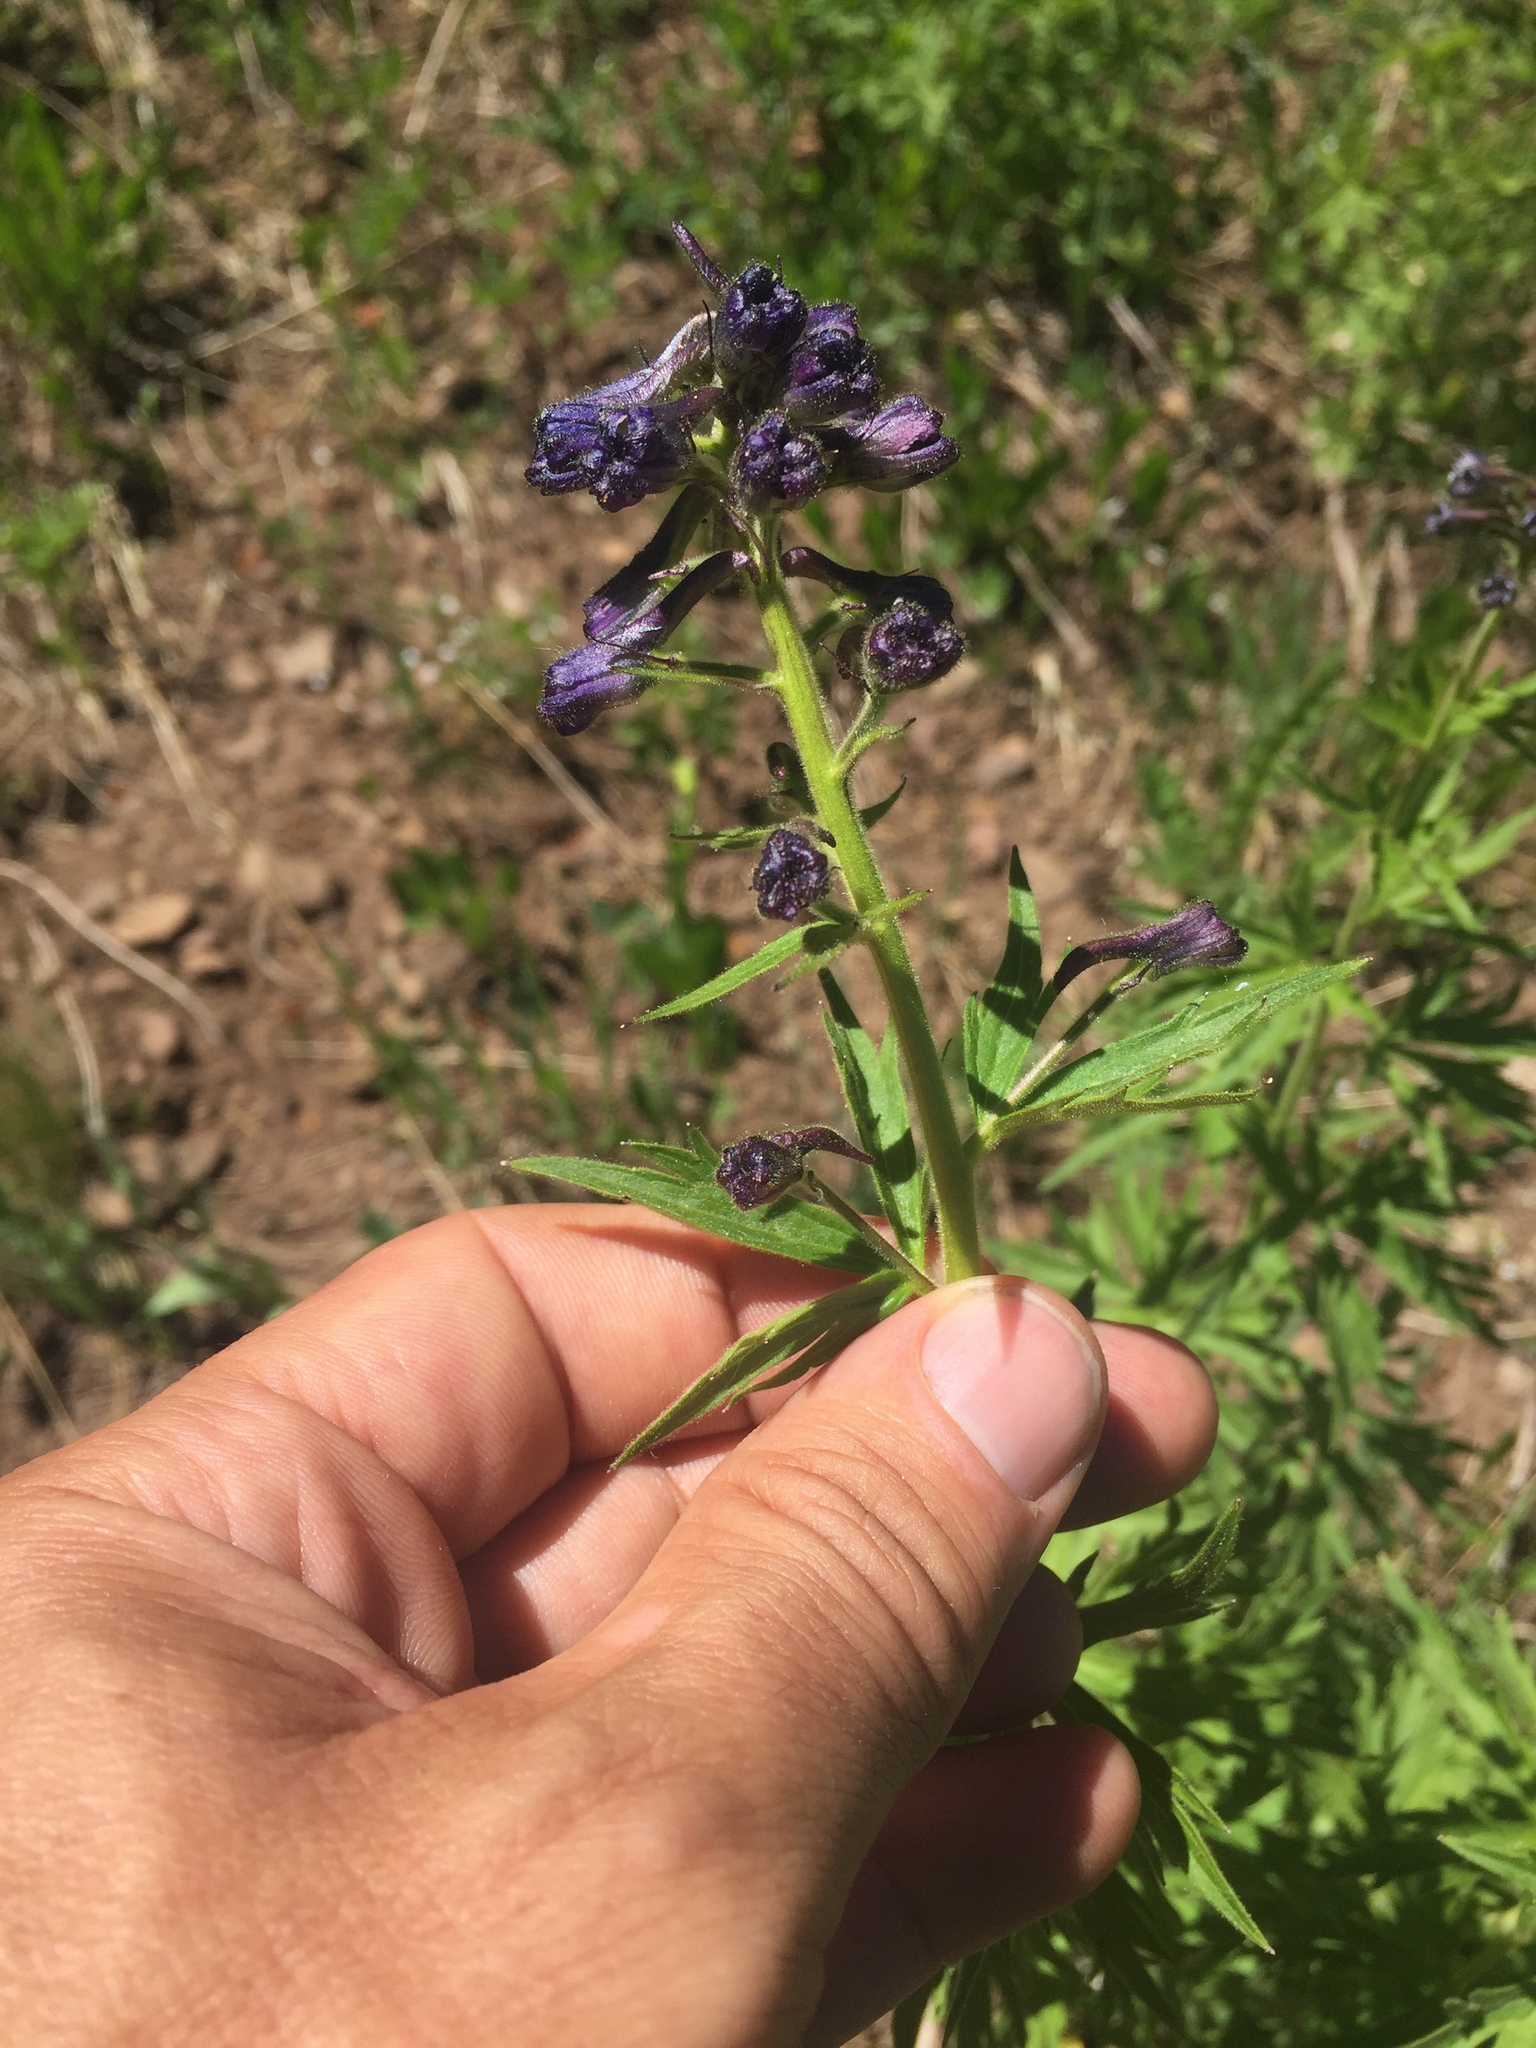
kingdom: Plantae
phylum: Tracheophyta
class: Magnoliopsida
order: Ranunculales
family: Ranunculaceae
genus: Delphinium
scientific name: Delphinium barbeyi
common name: Subalpine larkspur
